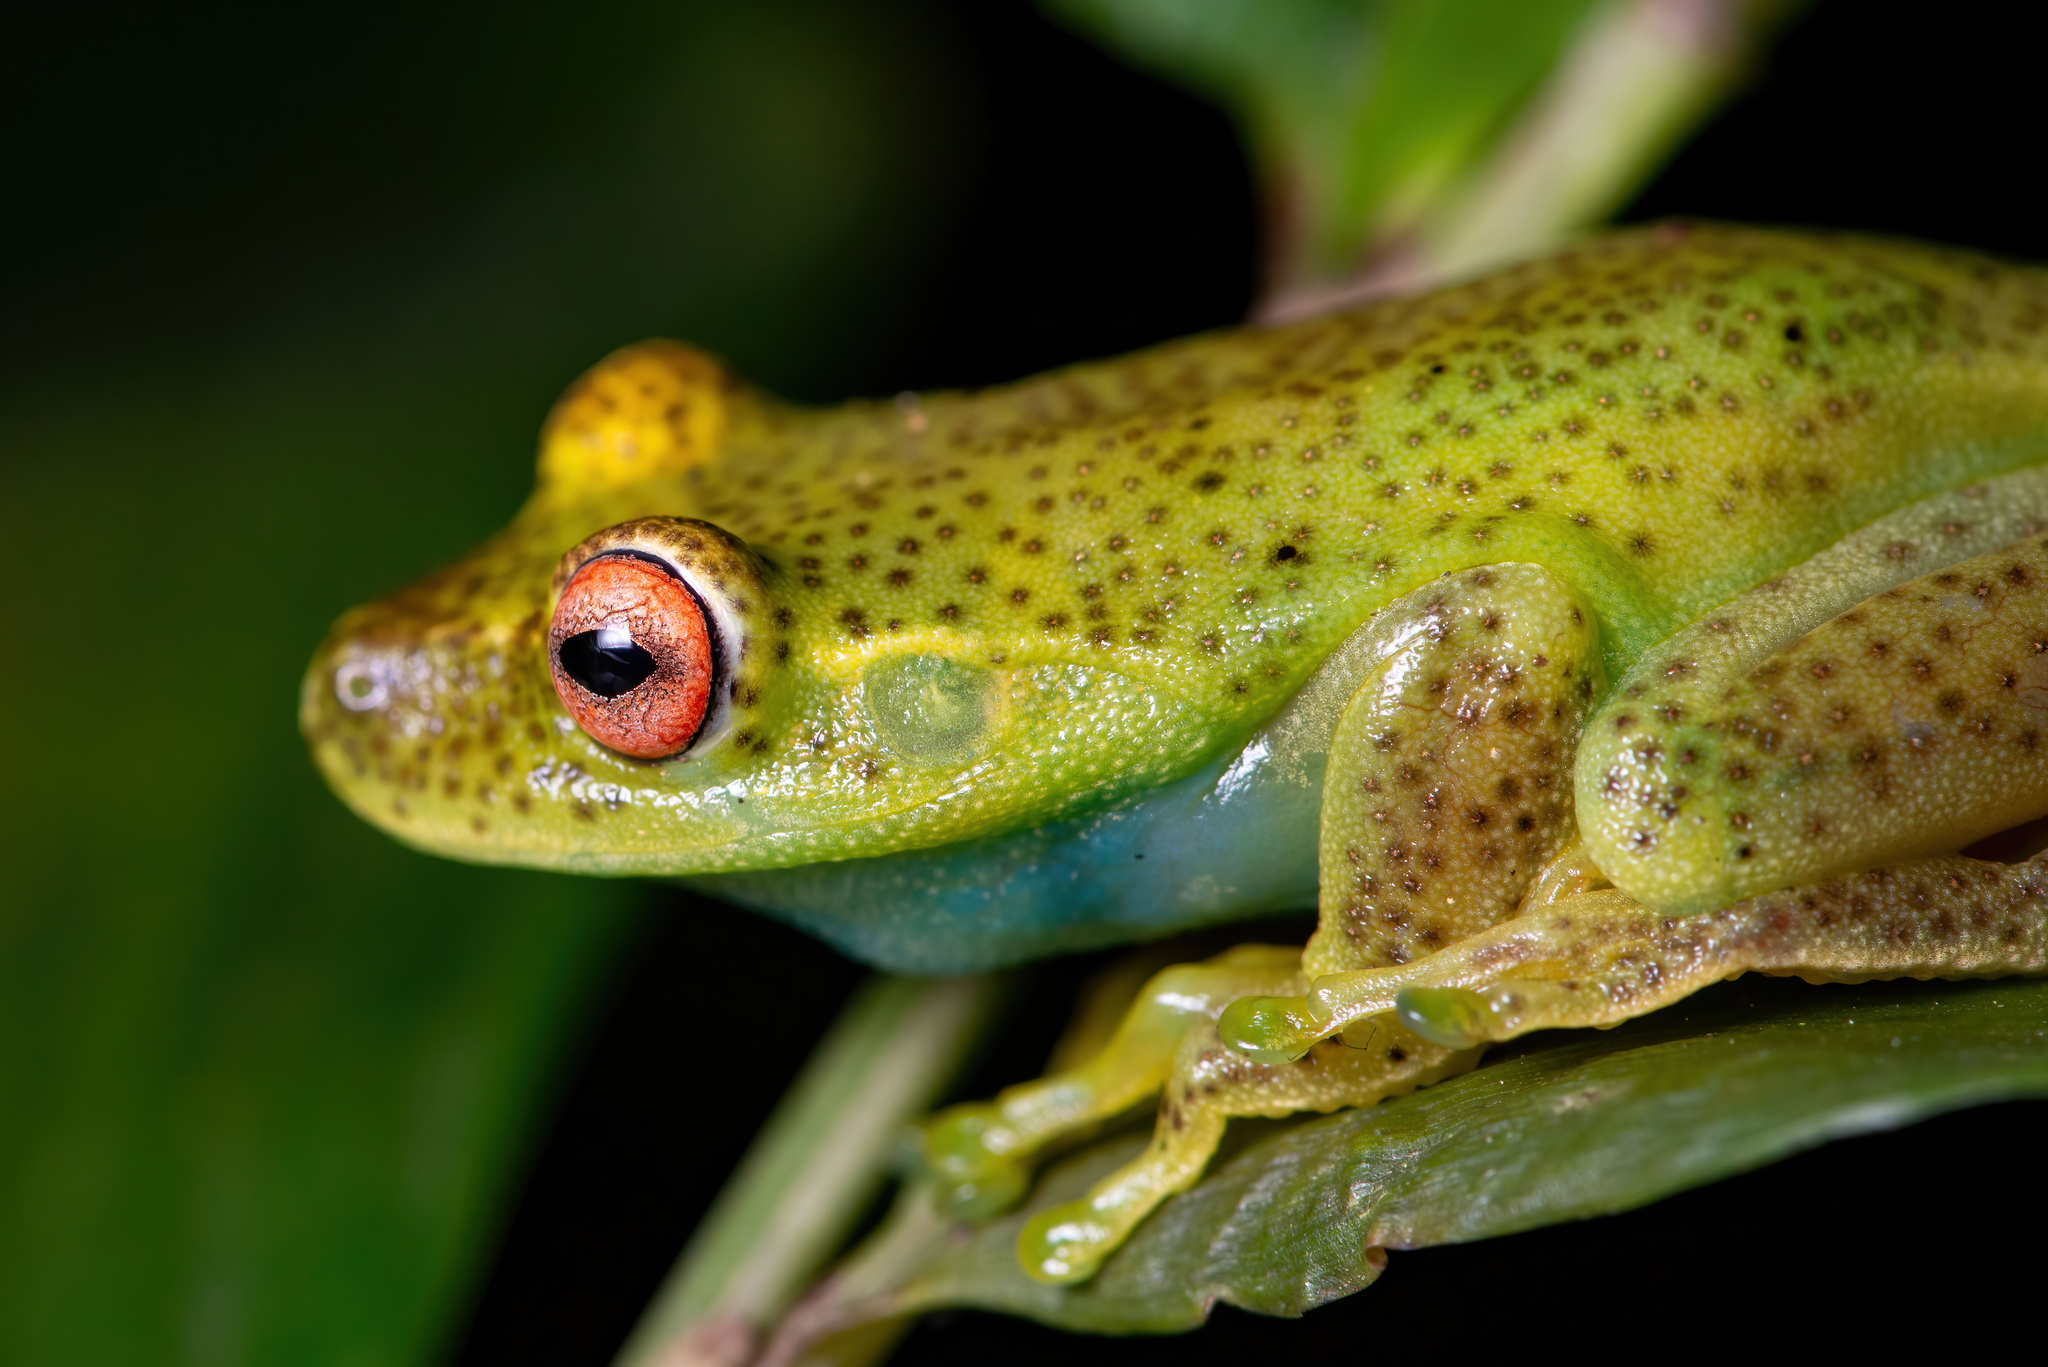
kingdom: Animalia
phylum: Chordata
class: Amphibia
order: Anura
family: Hylidae
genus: Aplastodiscus
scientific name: Aplastodiscus ehrhardti
